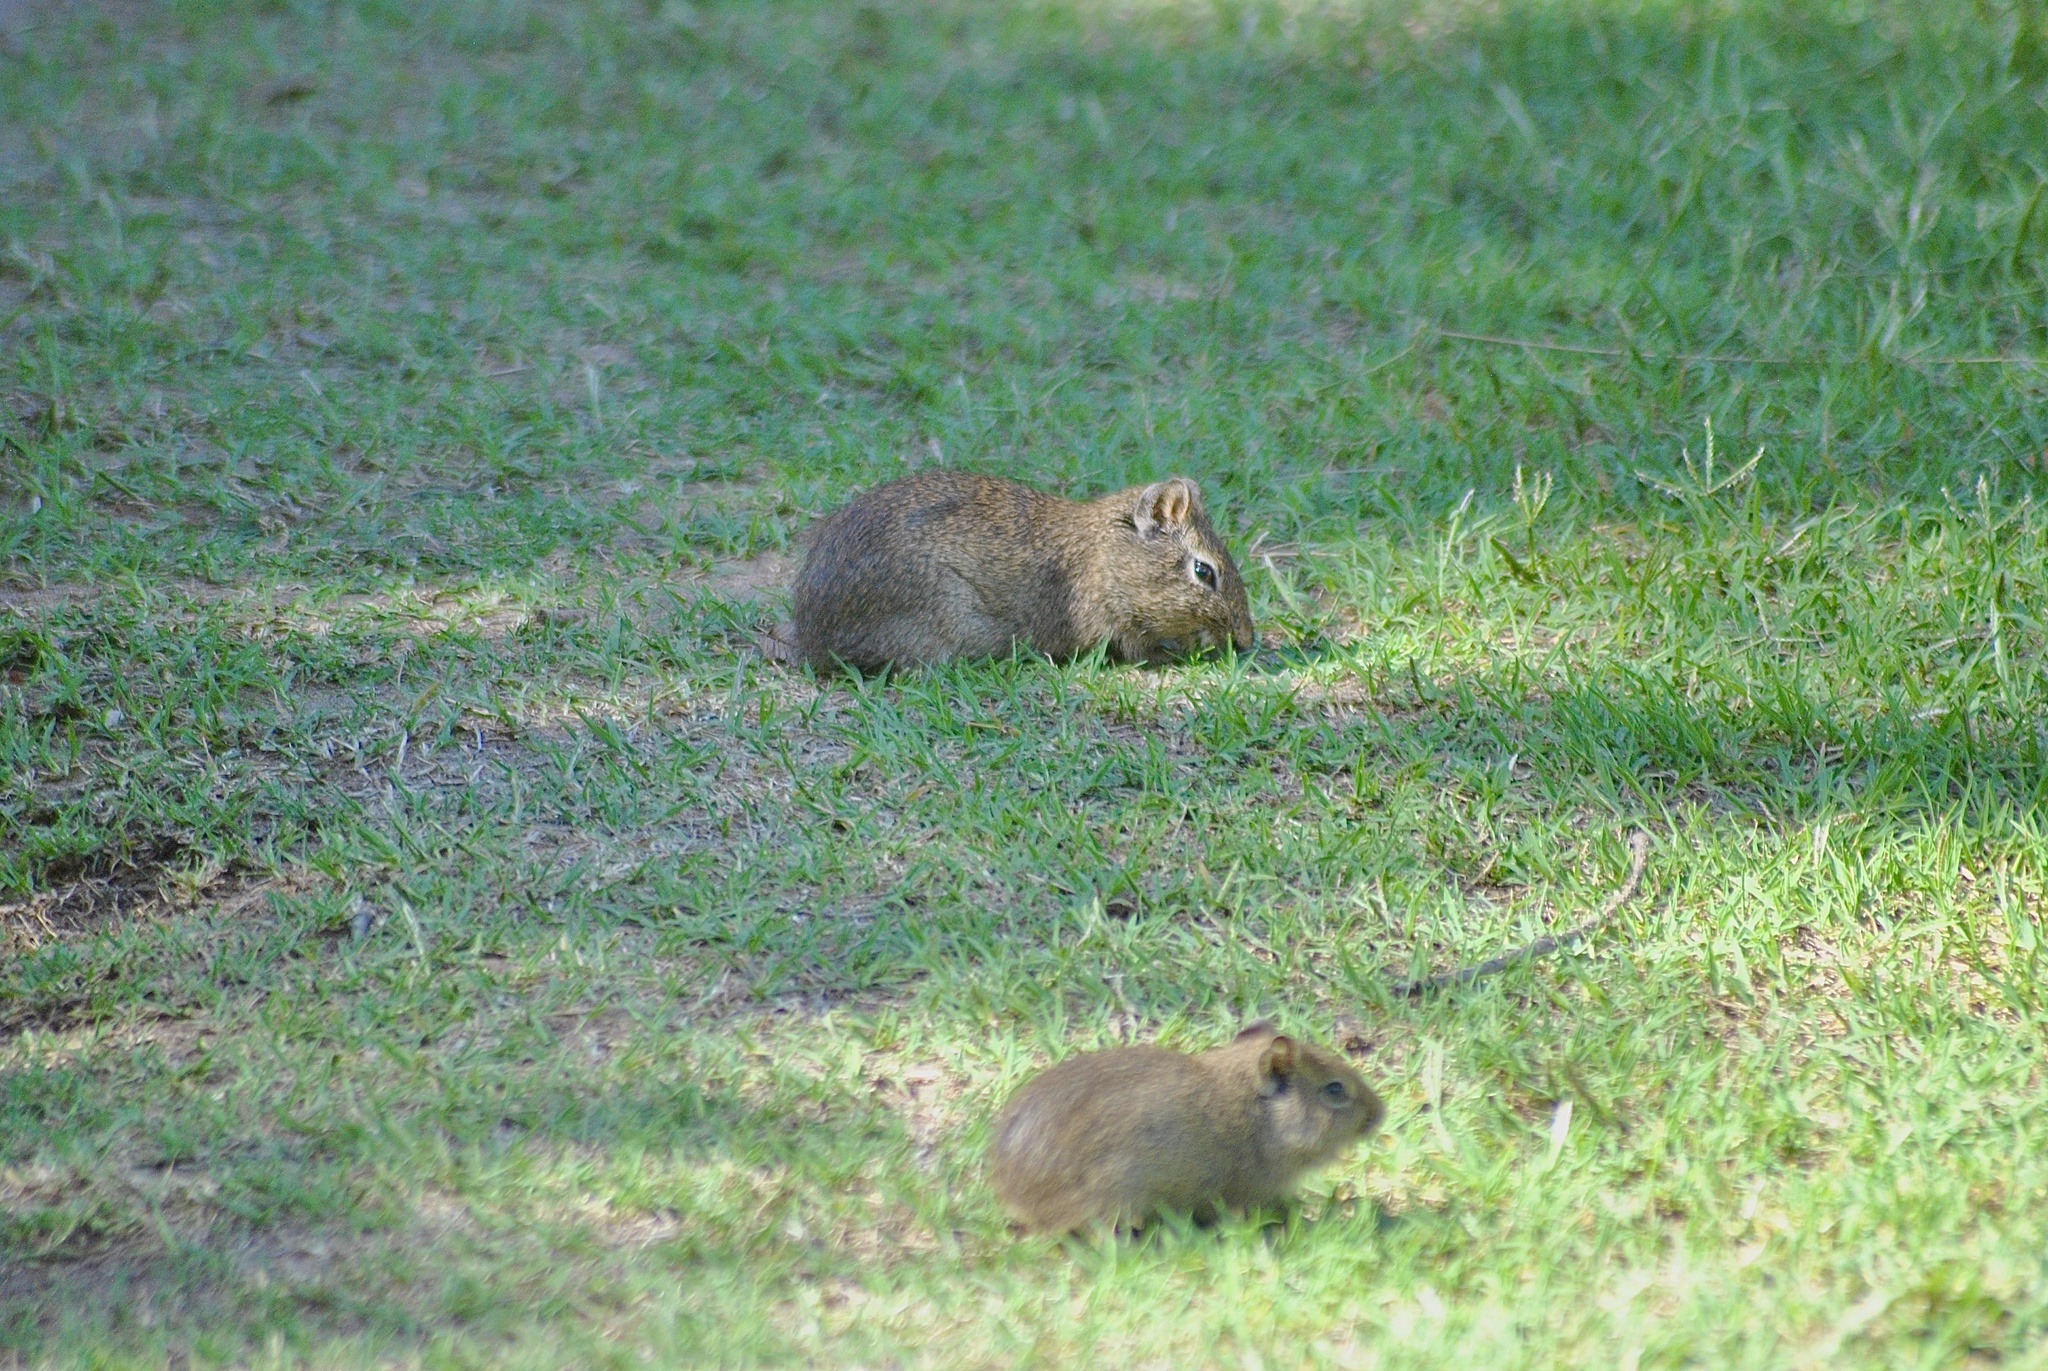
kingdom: Animalia
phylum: Chordata
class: Mammalia
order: Rodentia
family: Caviidae
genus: Microcavia
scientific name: Microcavia australis
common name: Southern mountain cavy
